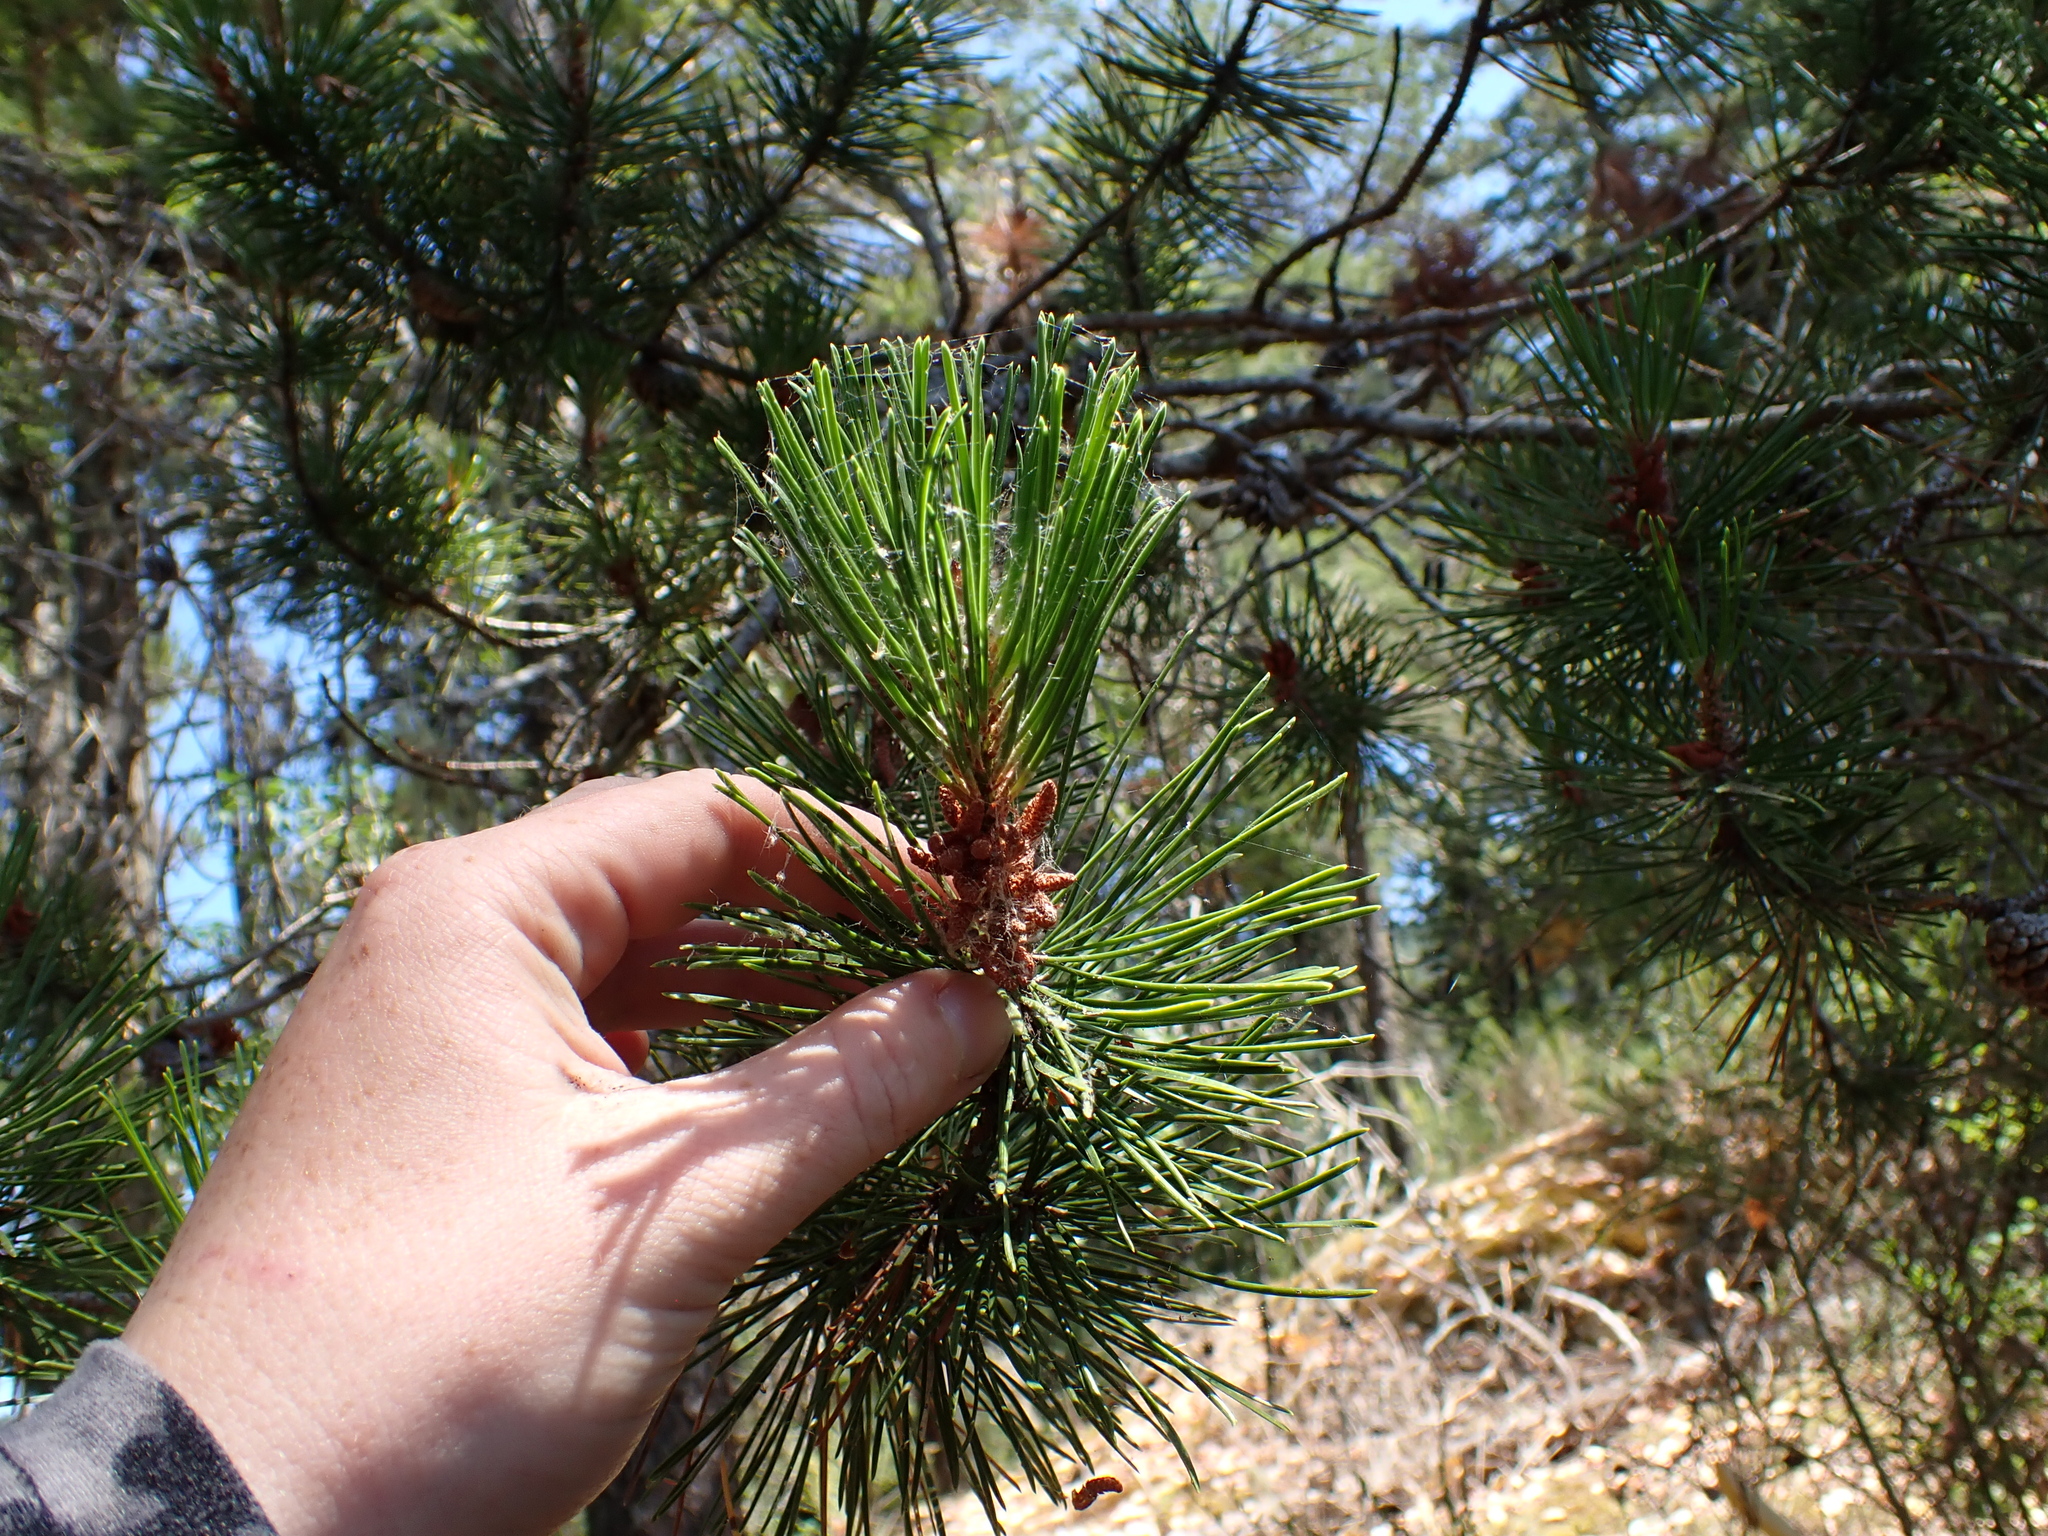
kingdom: Plantae
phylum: Tracheophyta
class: Pinopsida
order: Pinales
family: Pinaceae
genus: Pinus
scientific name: Pinus contorta
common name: Lodgepole pine
